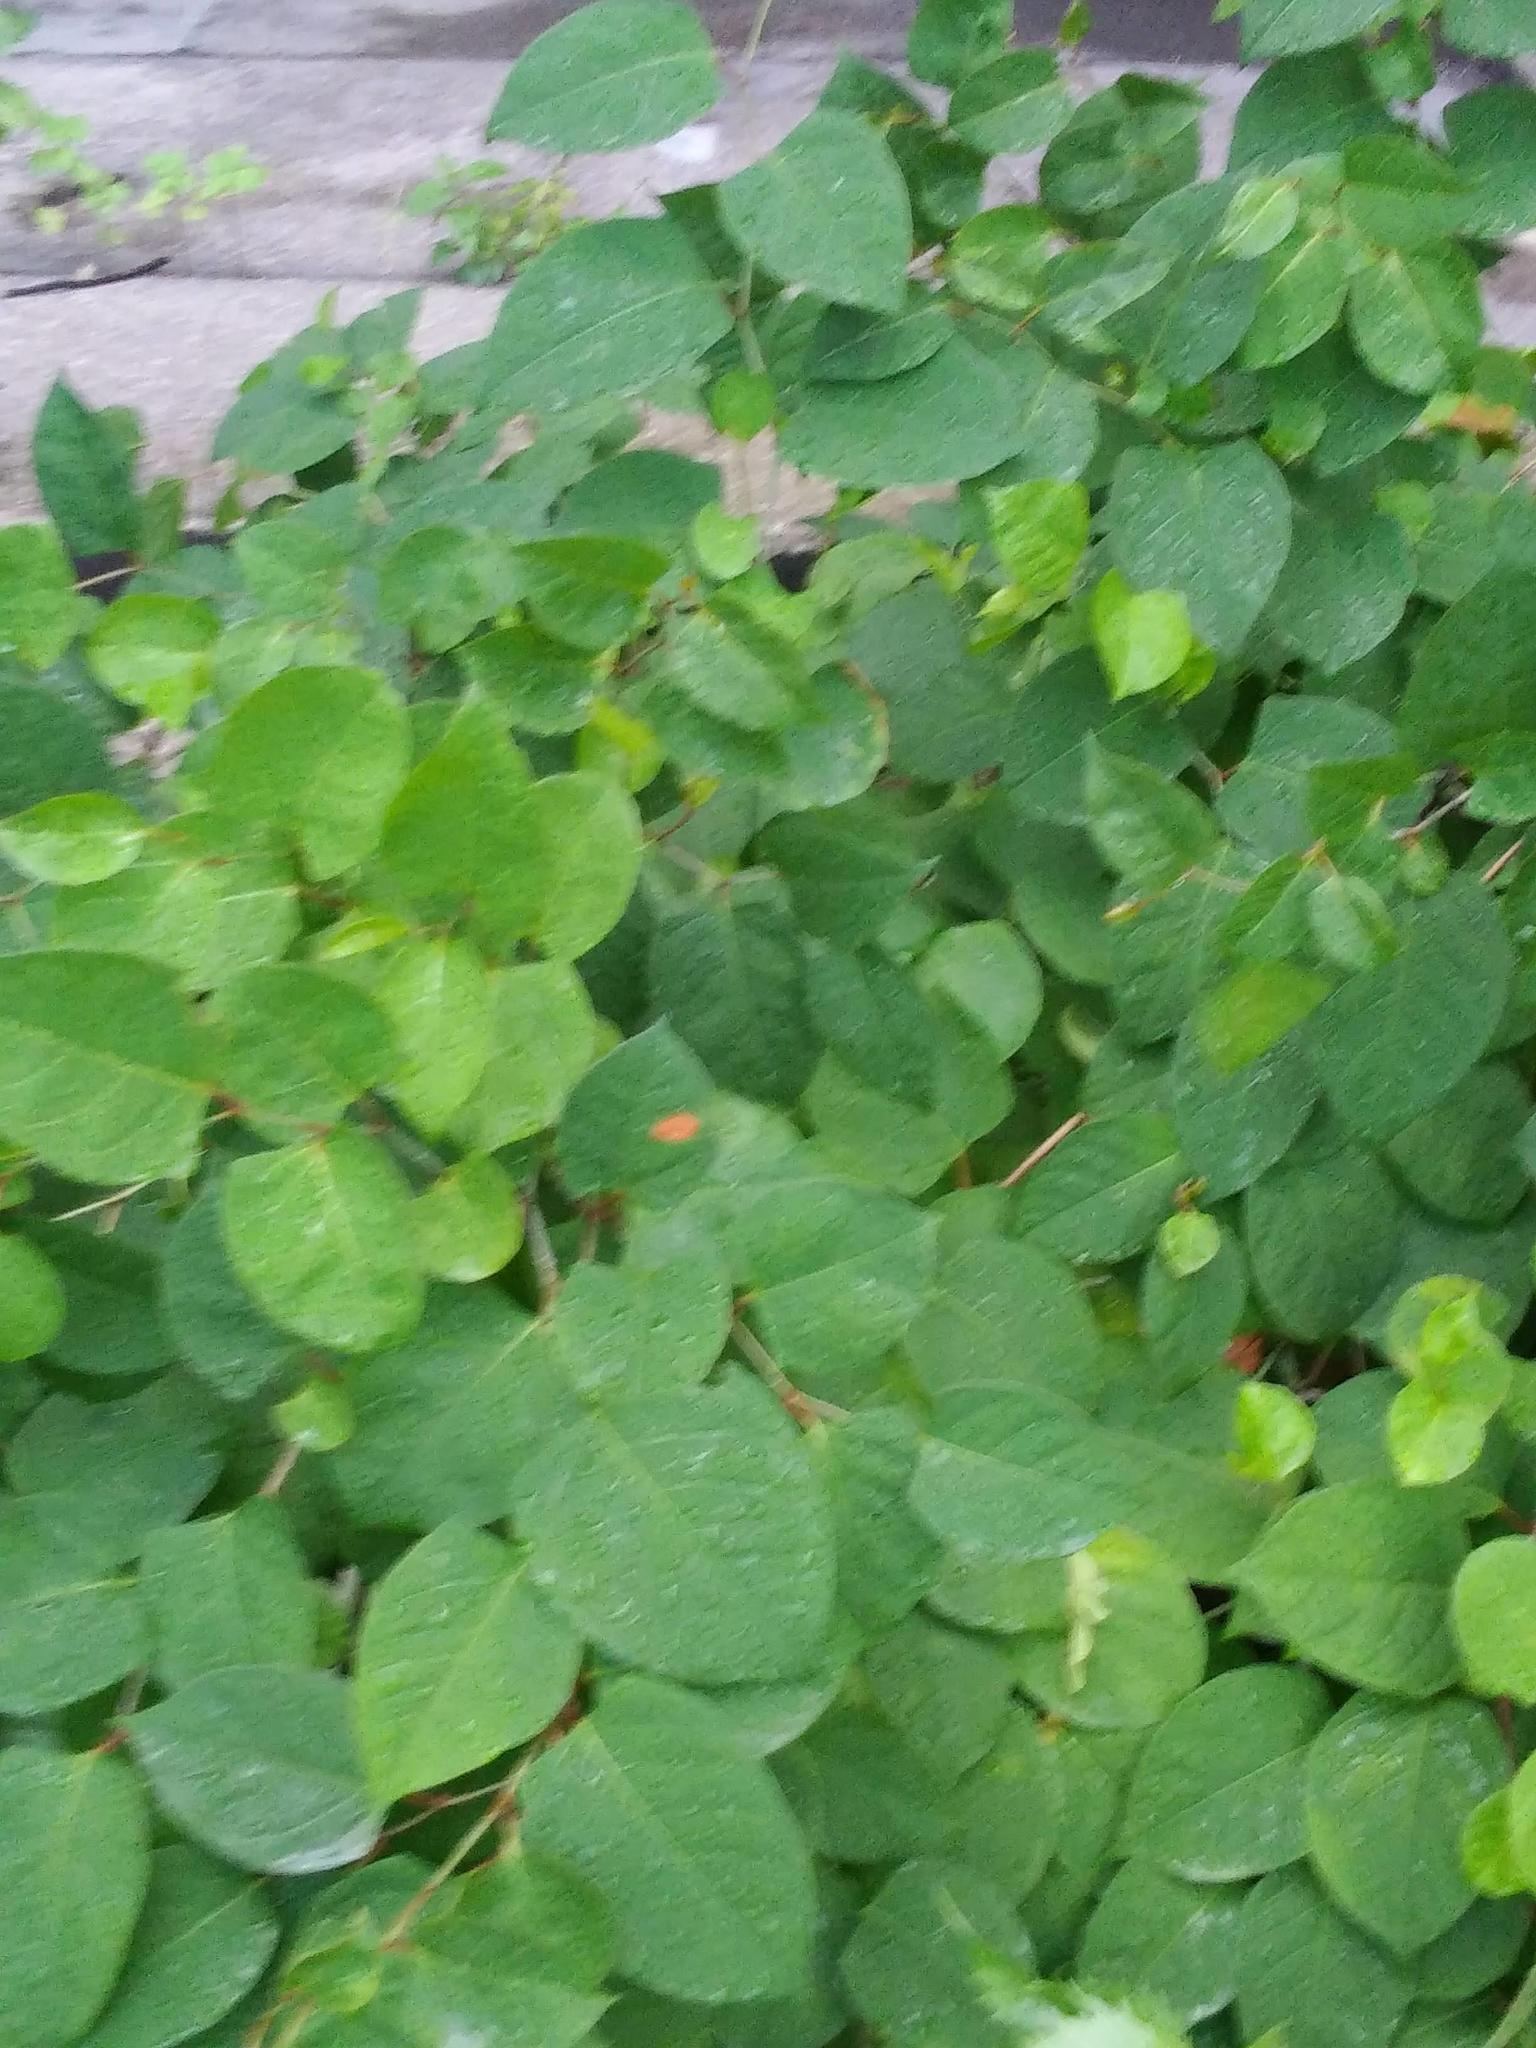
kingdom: Plantae
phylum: Tracheophyta
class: Magnoliopsida
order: Caryophyllales
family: Polygonaceae
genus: Reynoutria
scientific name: Reynoutria japonica
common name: Japanese knotweed
